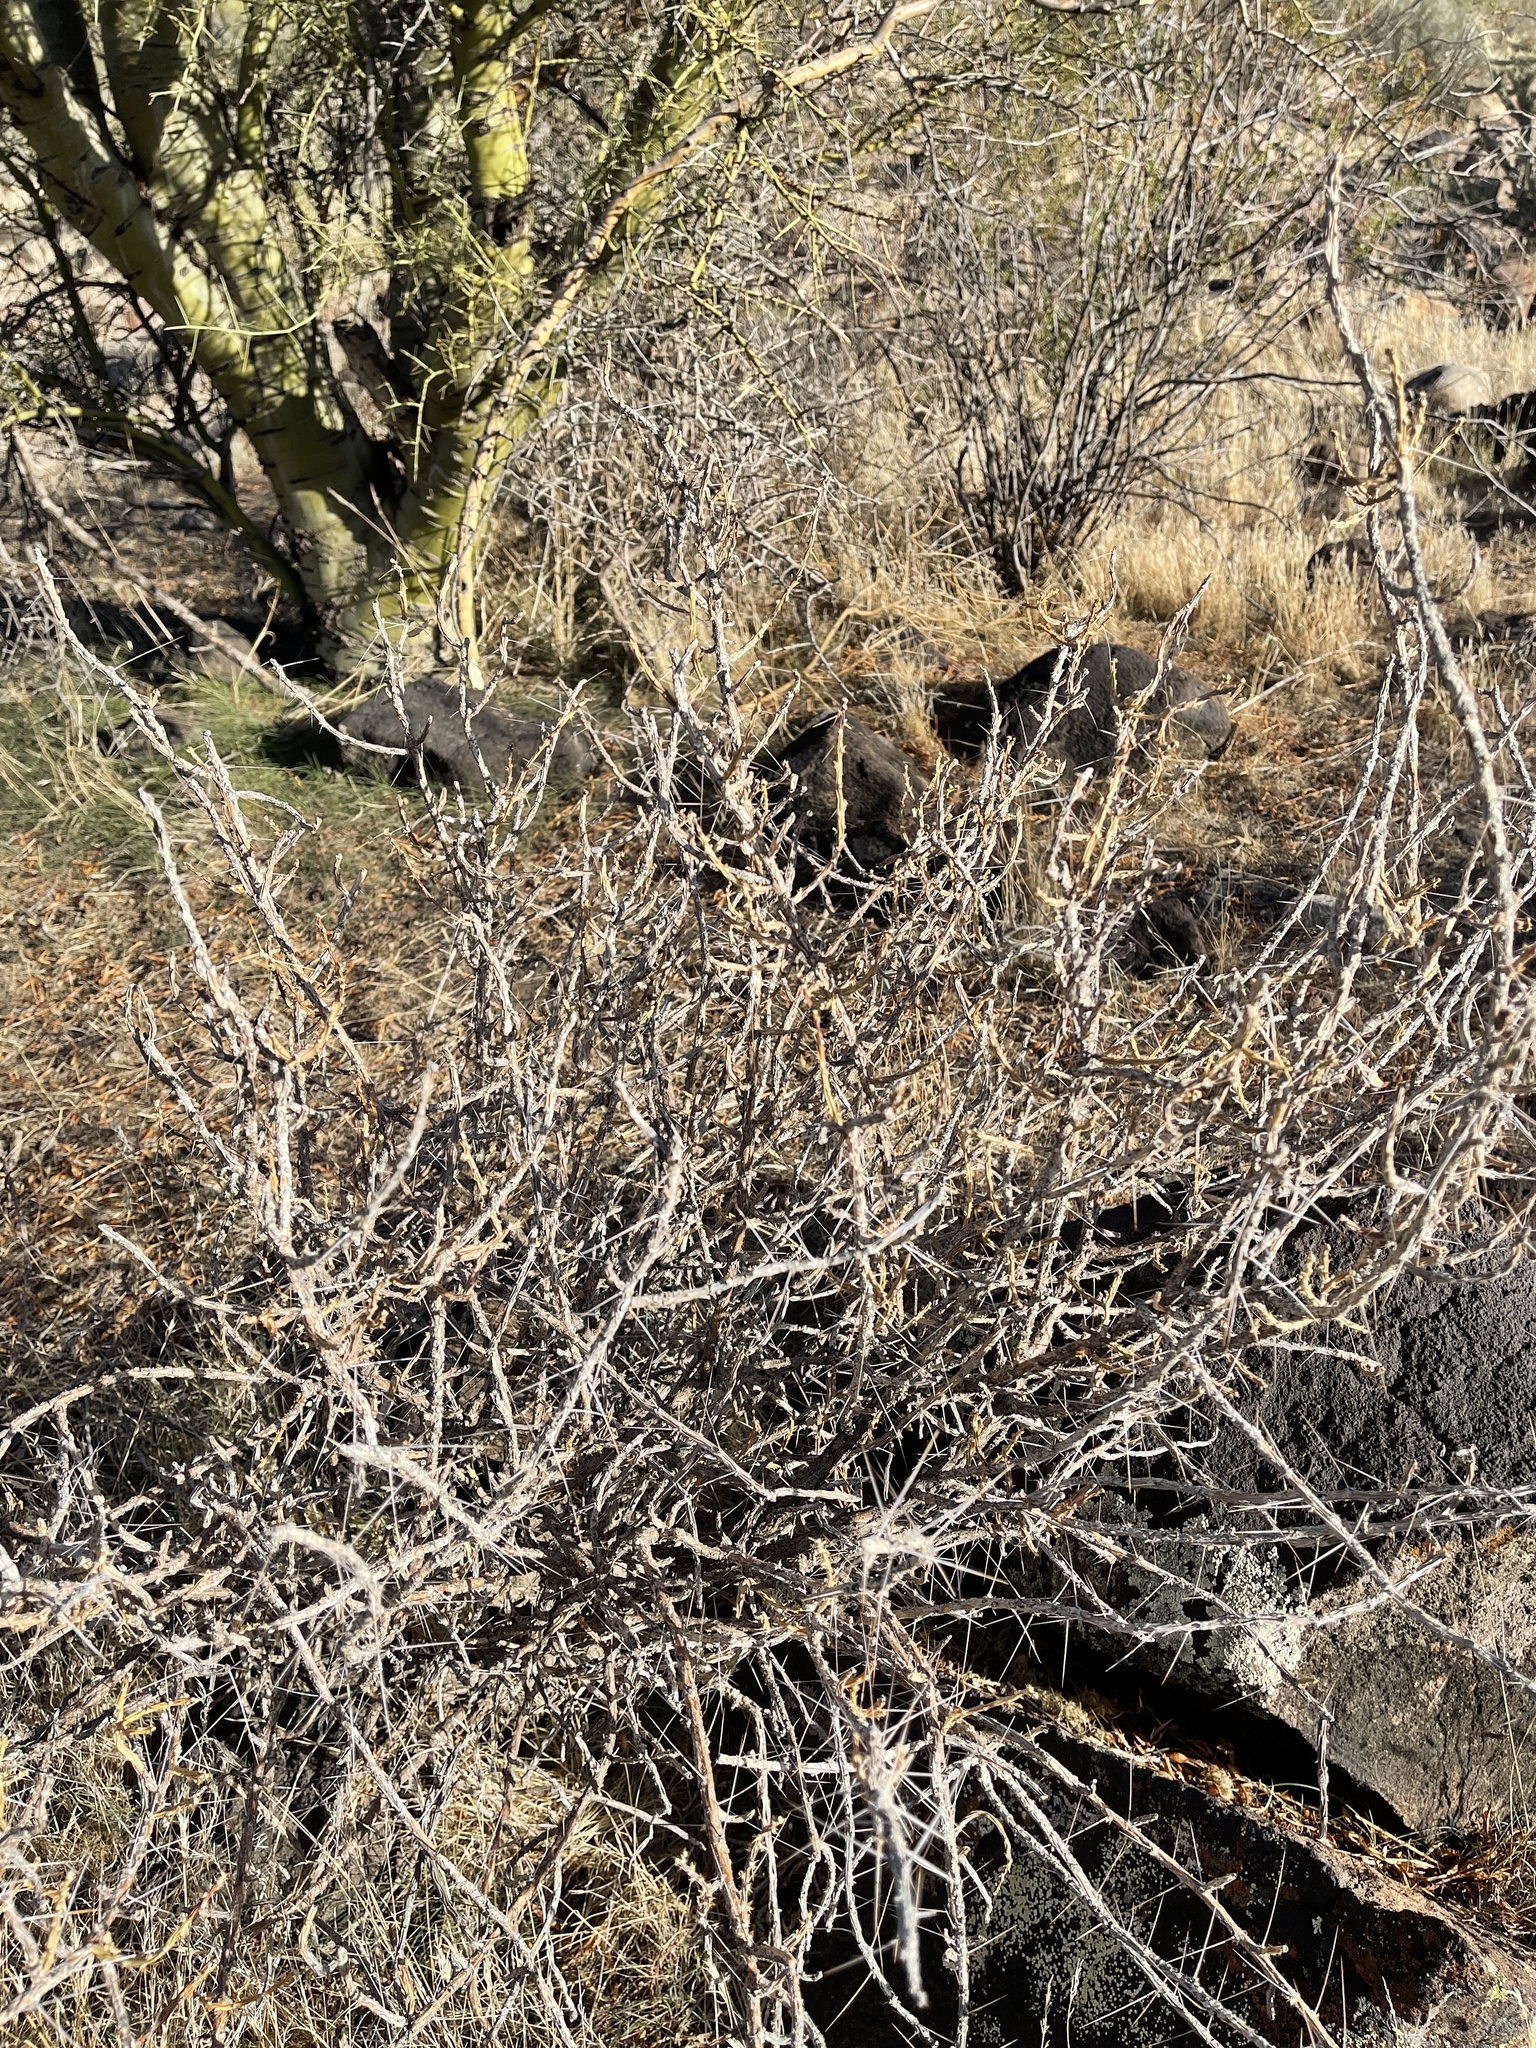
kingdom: Plantae
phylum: Tracheophyta
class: Magnoliopsida
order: Caryophyllales
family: Cactaceae
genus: Cylindropuntia
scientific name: Cylindropuntia leptocaulis
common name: Christmas cactus
